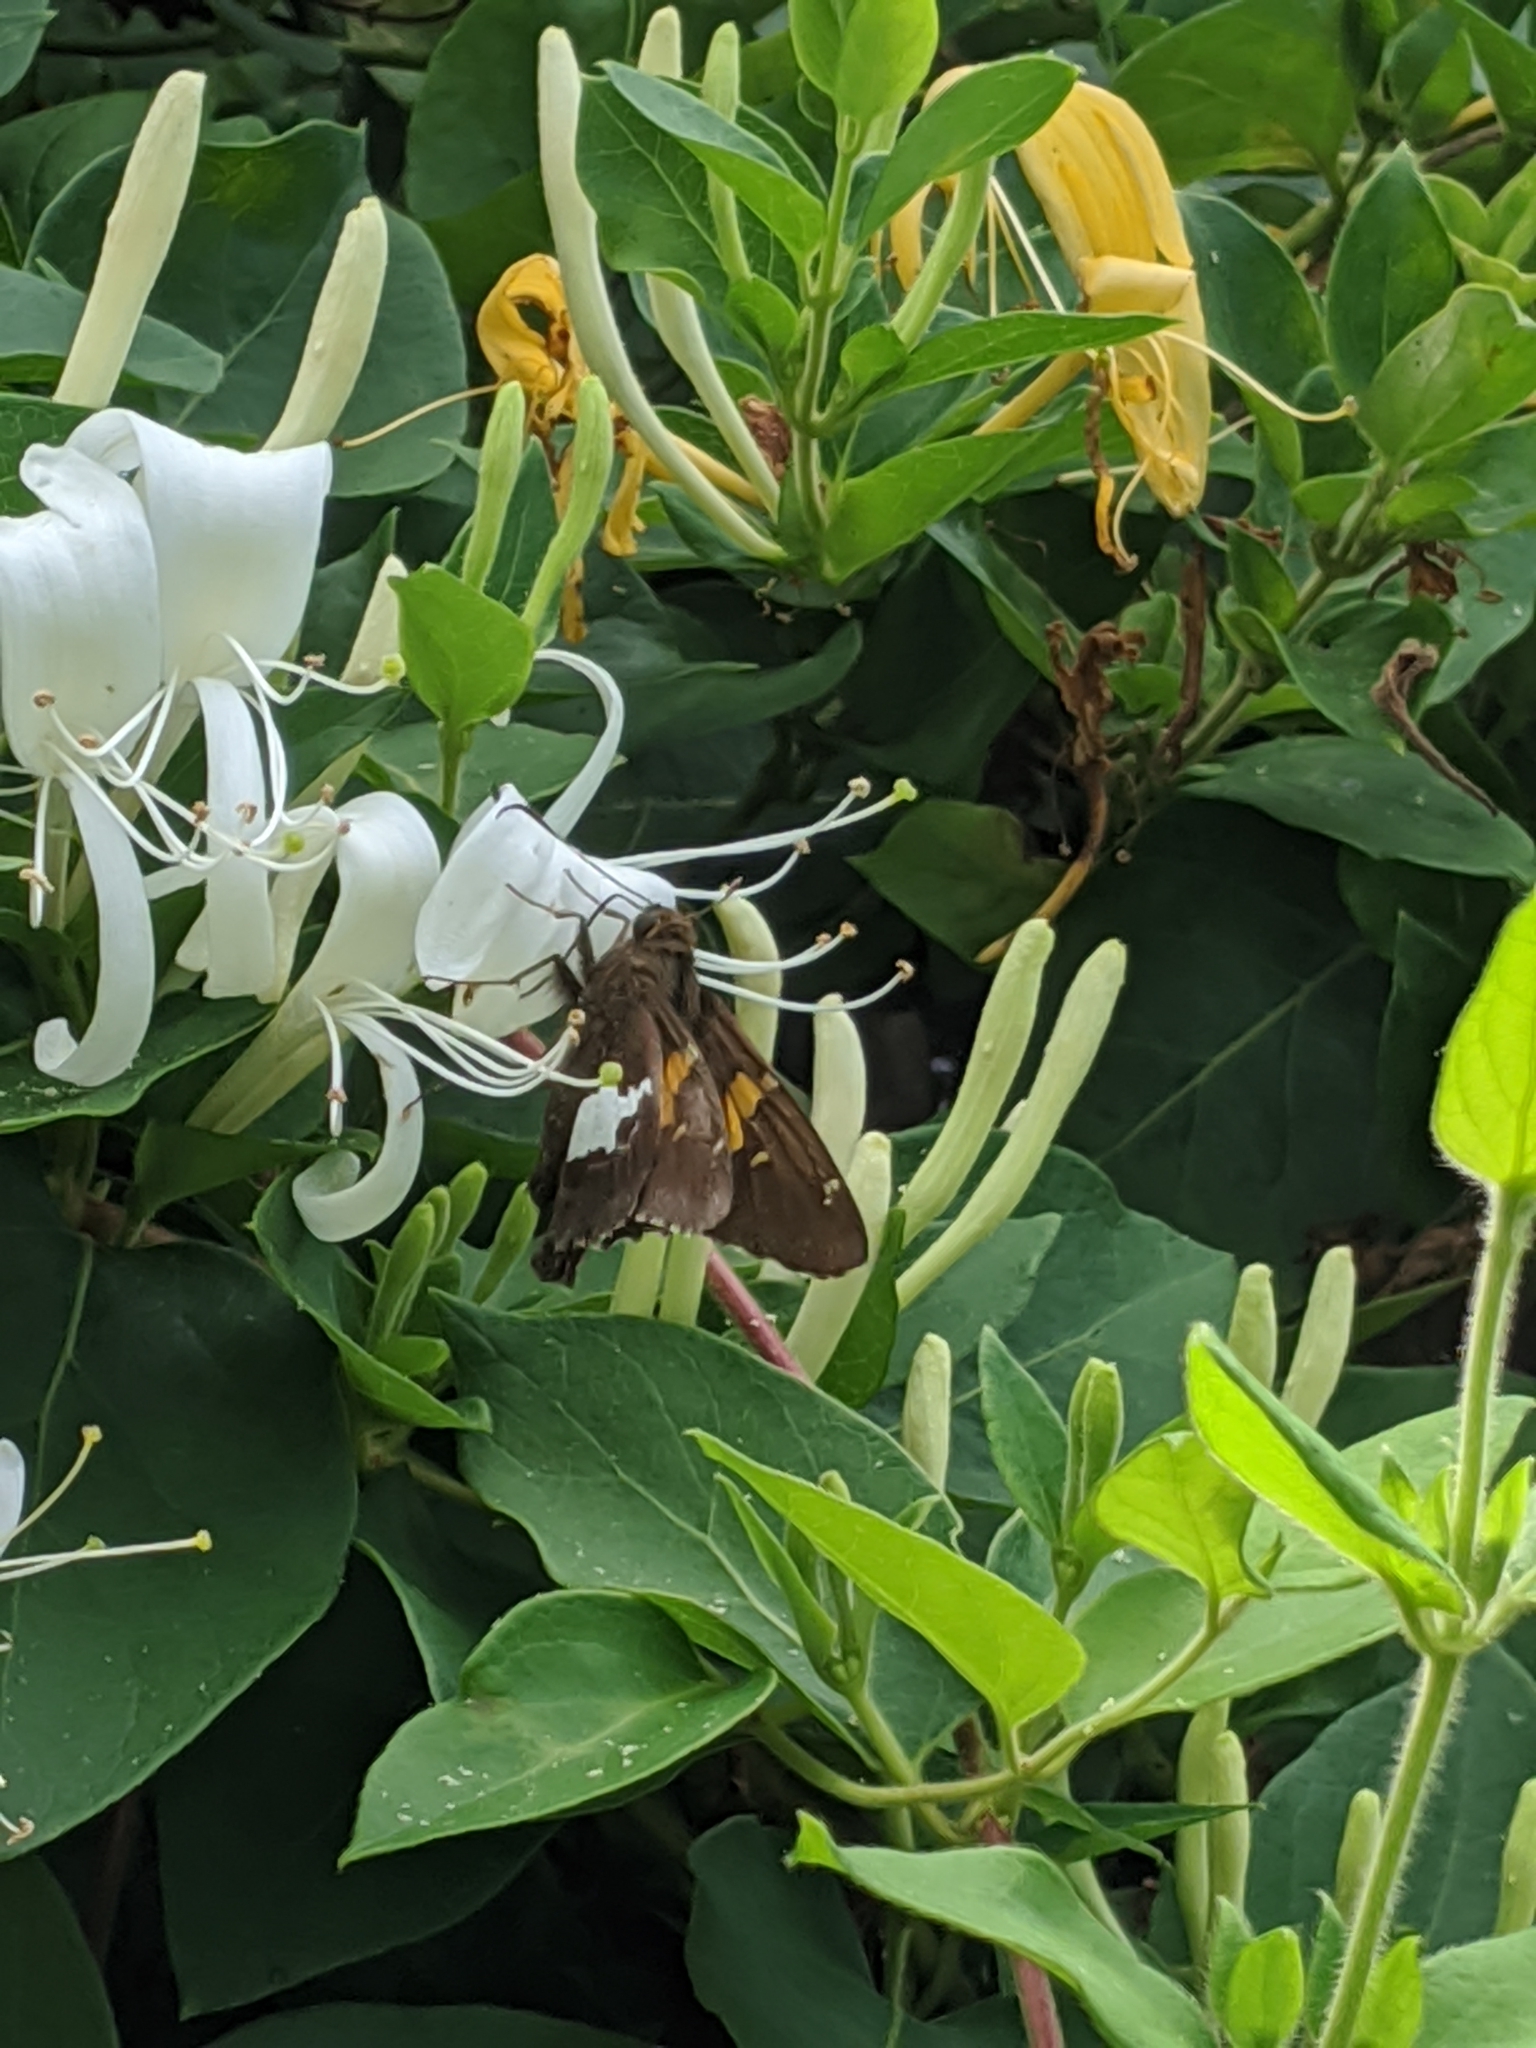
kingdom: Animalia
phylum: Arthropoda
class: Insecta
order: Lepidoptera
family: Hesperiidae
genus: Epargyreus
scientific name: Epargyreus clarus
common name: Silver-spotted skipper
